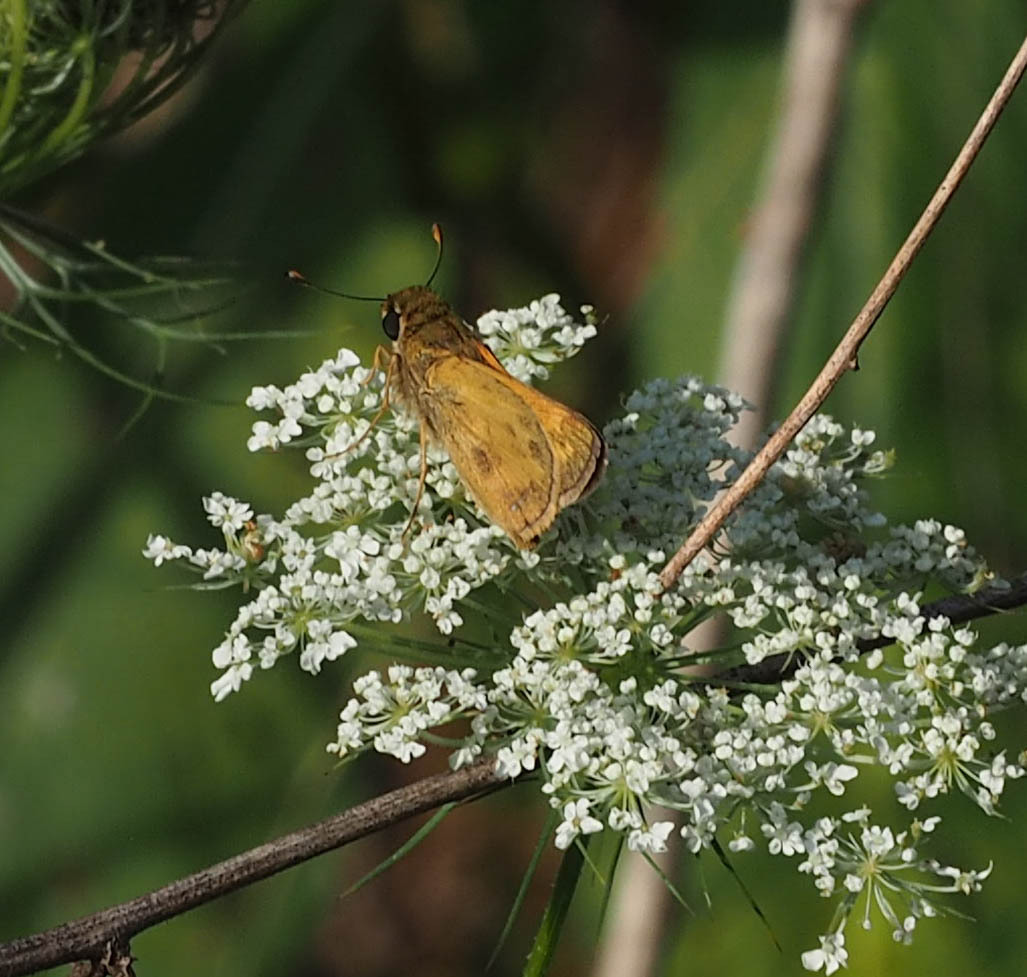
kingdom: Animalia
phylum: Arthropoda
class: Insecta
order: Lepidoptera
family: Hesperiidae
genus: Atalopedes
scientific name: Atalopedes
